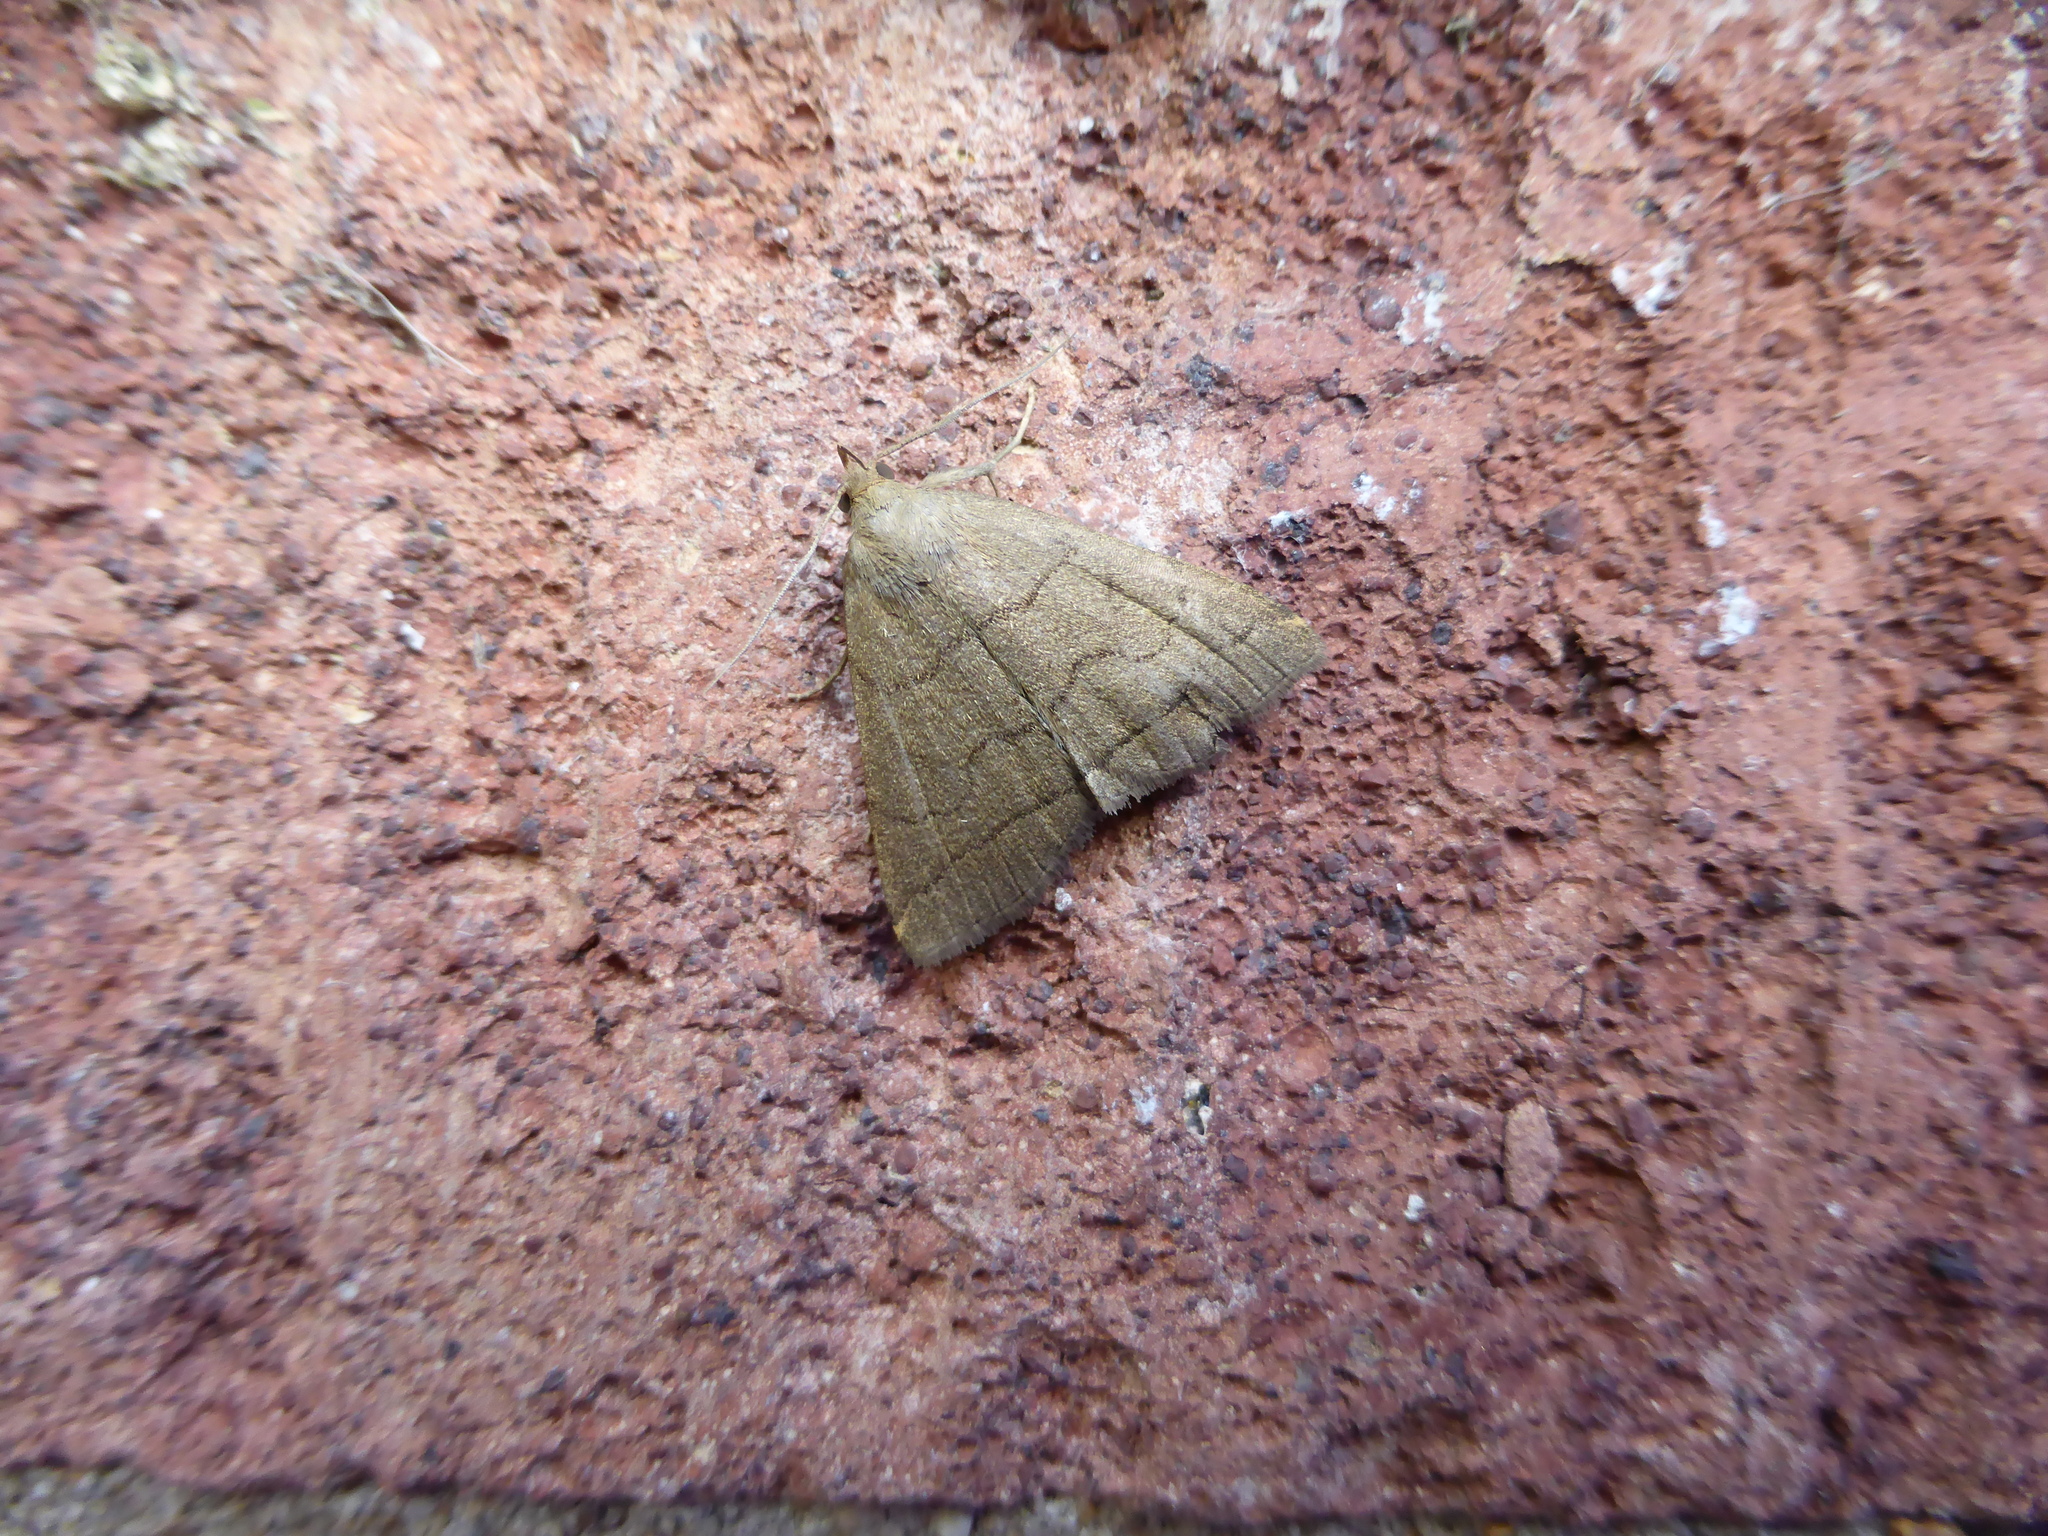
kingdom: Animalia
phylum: Arthropoda
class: Insecta
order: Lepidoptera
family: Erebidae
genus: Herminia
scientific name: Herminia tarsipennalis
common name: Fan-foot
